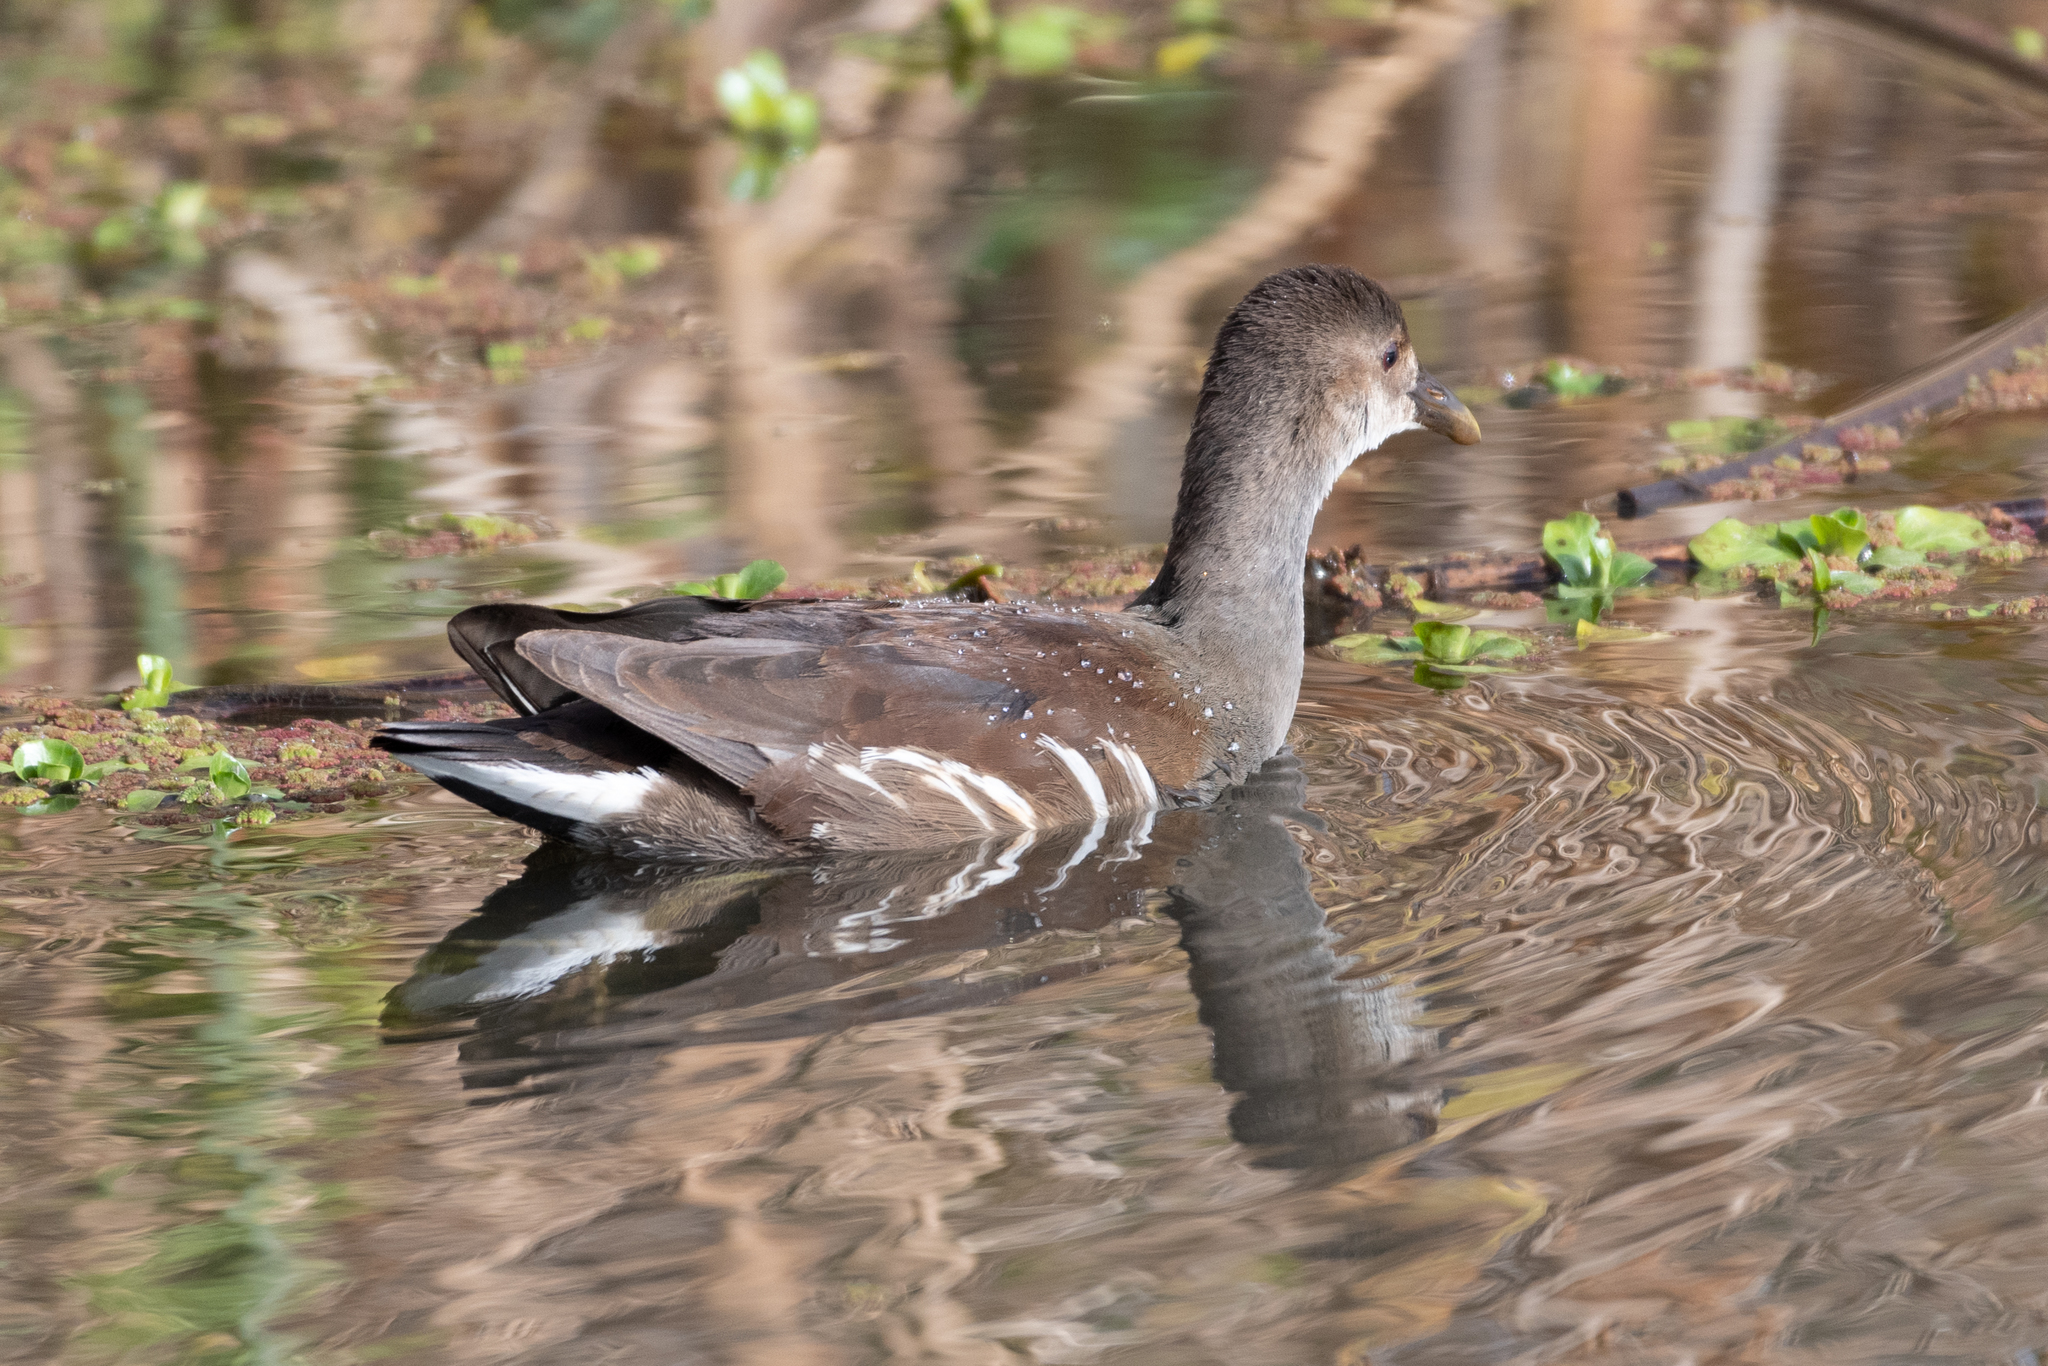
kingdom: Animalia
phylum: Chordata
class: Aves
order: Gruiformes
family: Rallidae
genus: Gallinula
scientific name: Gallinula chloropus
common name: Common moorhen
